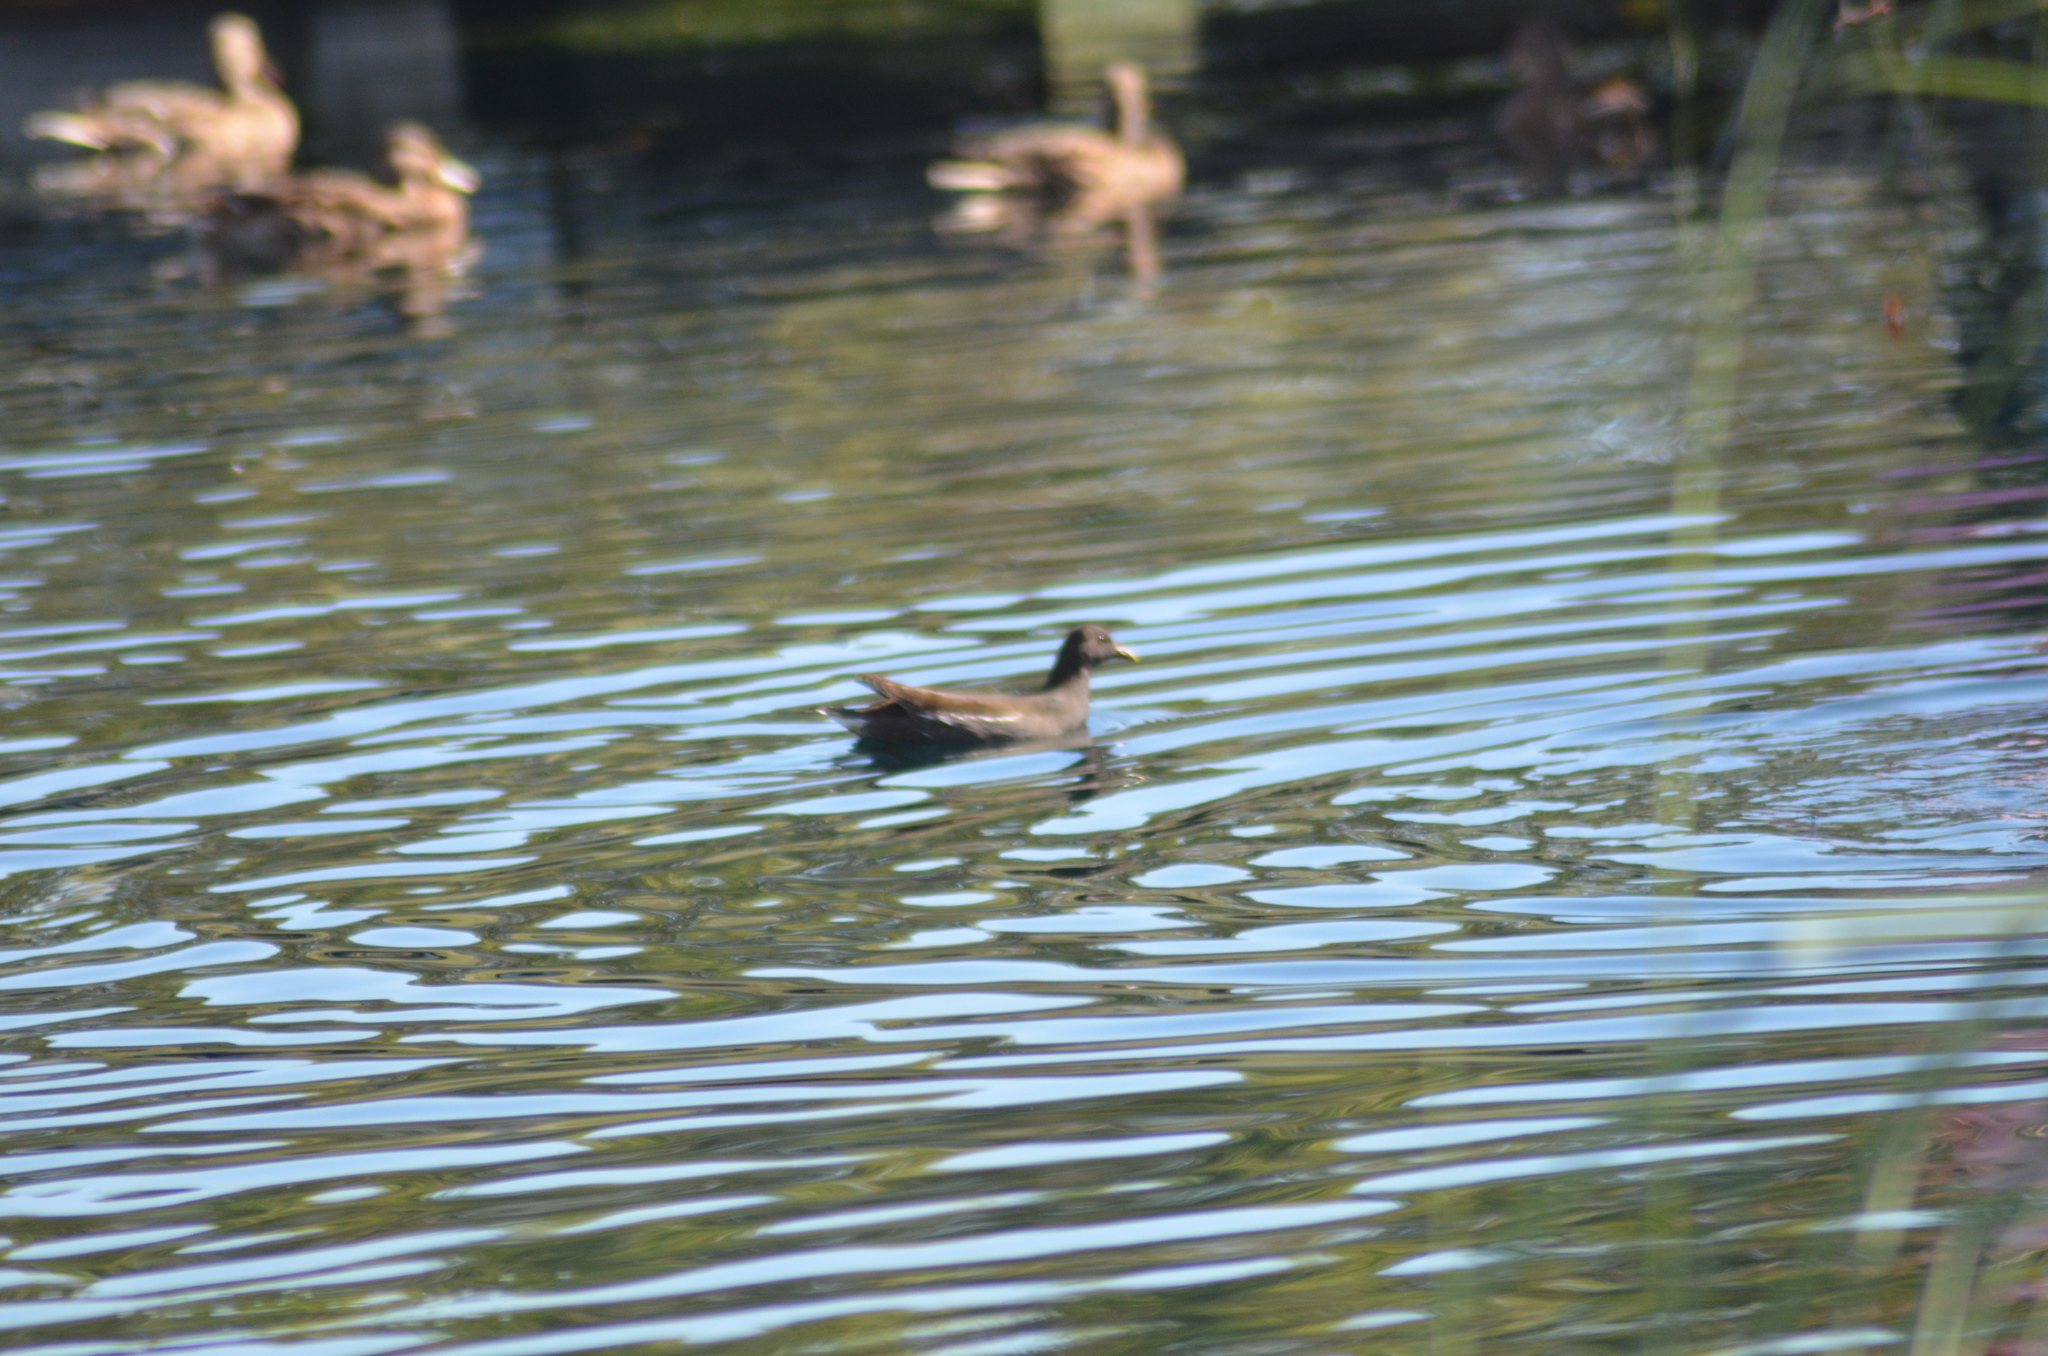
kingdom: Animalia
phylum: Chordata
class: Aves
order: Gruiformes
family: Rallidae
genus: Gallinula
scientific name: Gallinula chloropus
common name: Common moorhen
